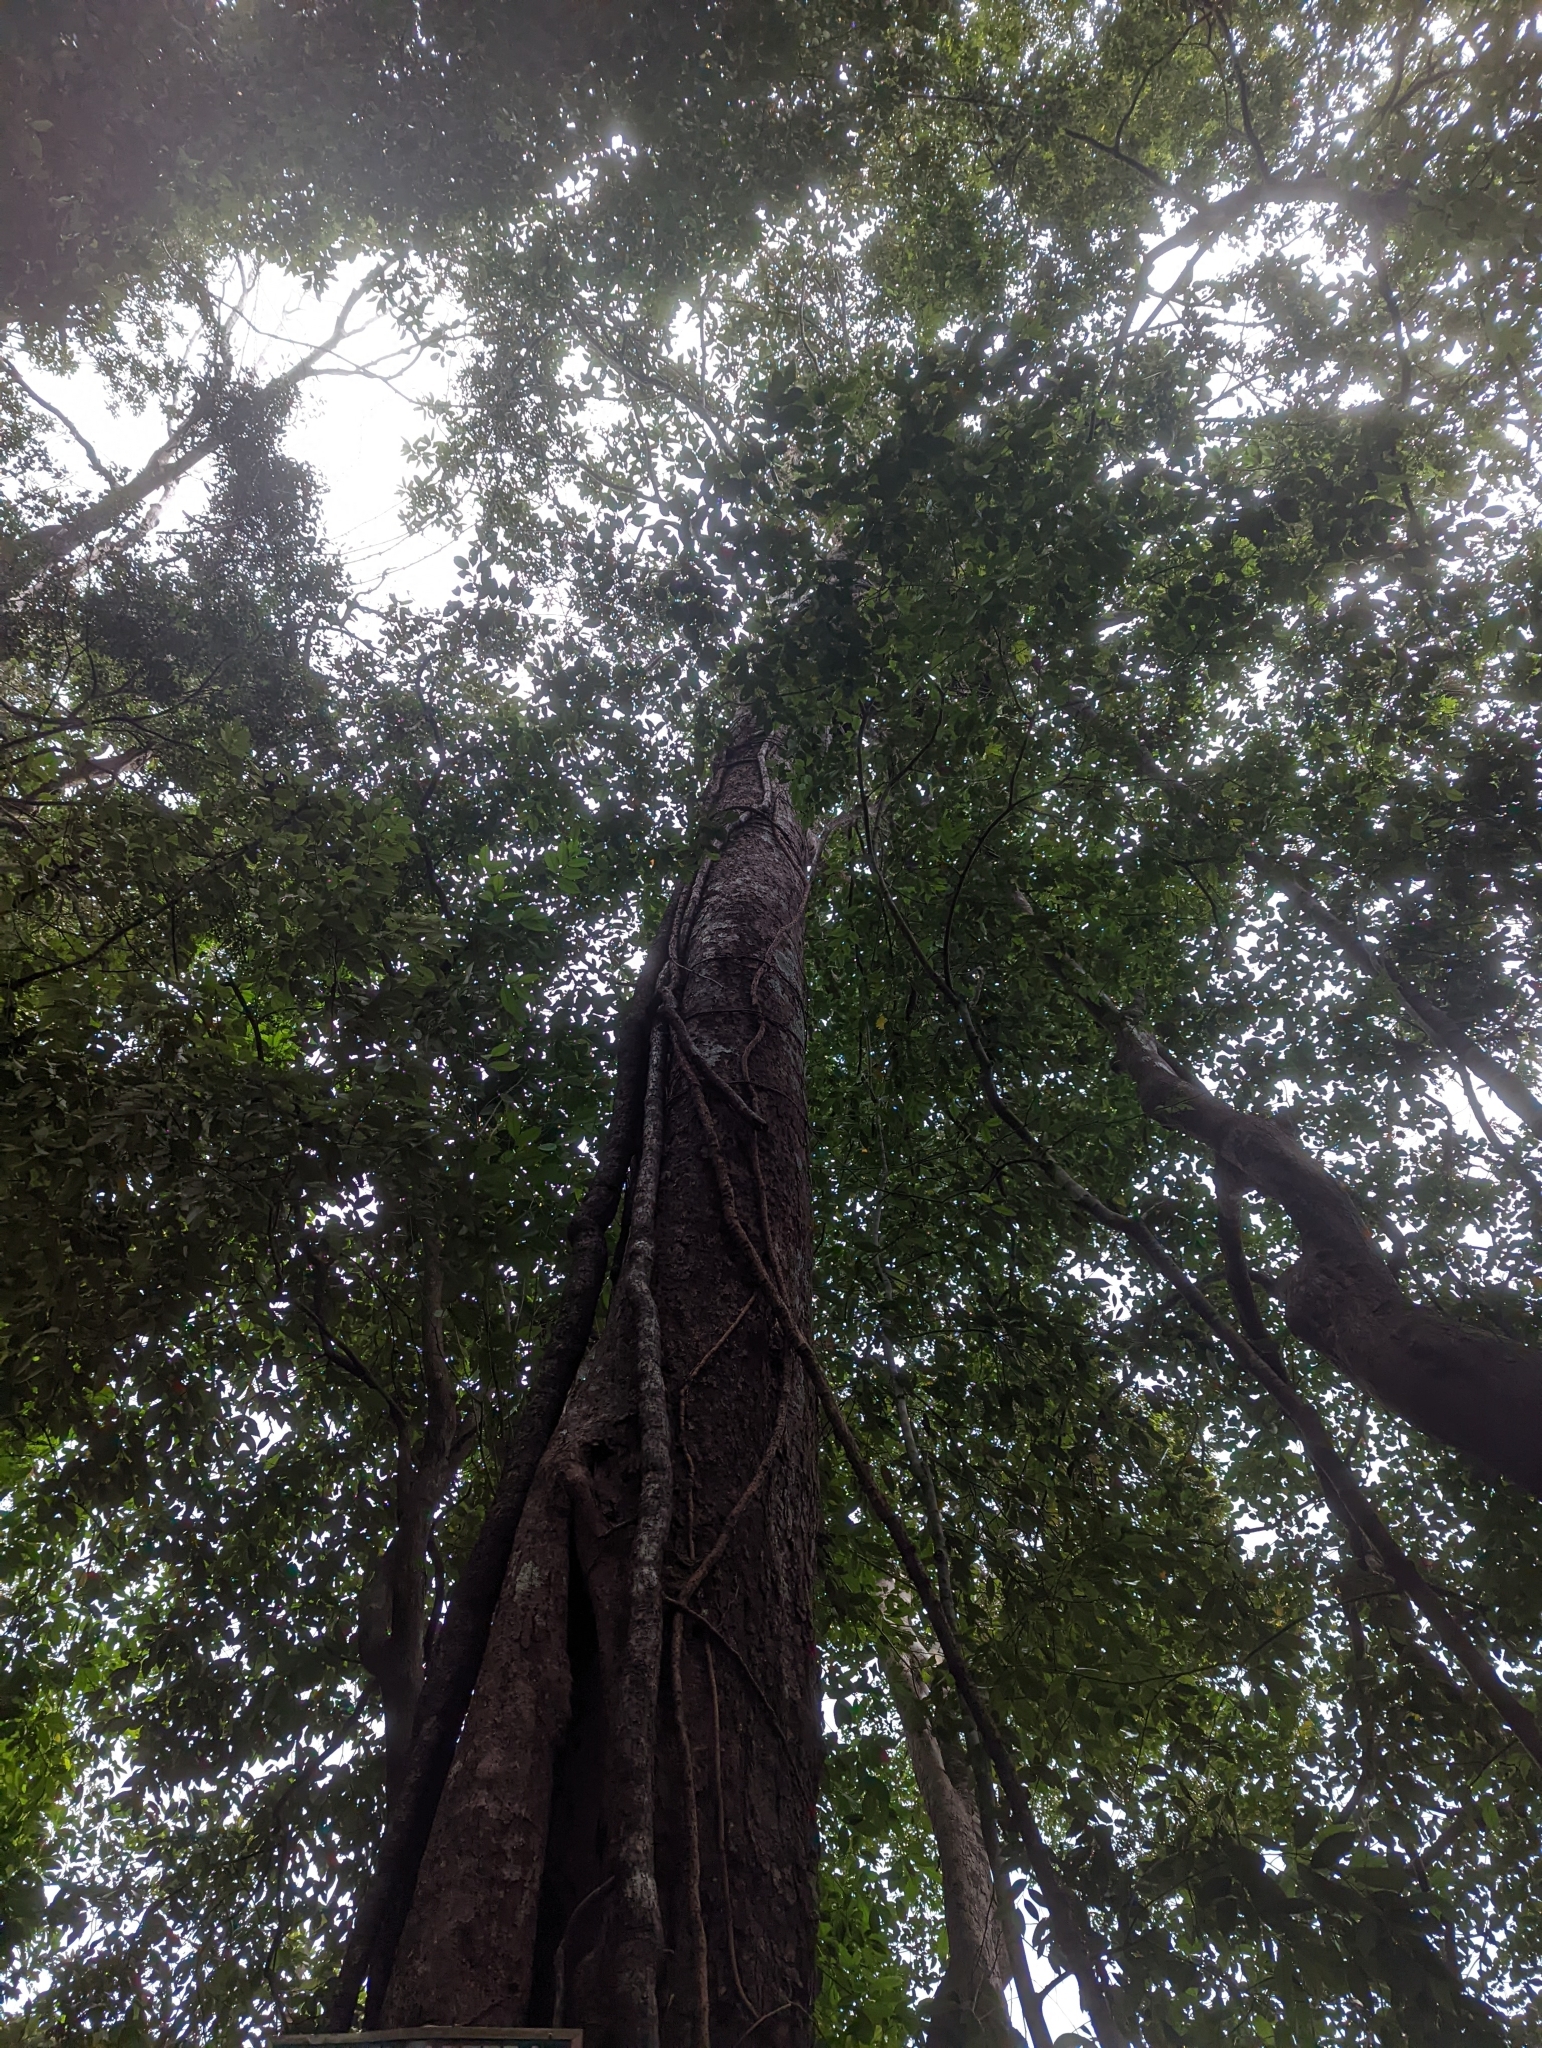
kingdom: Plantae
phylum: Tracheophyta
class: Magnoliopsida
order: Sapindales
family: Anacardiaceae
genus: Gluta
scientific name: Gluta aptera
